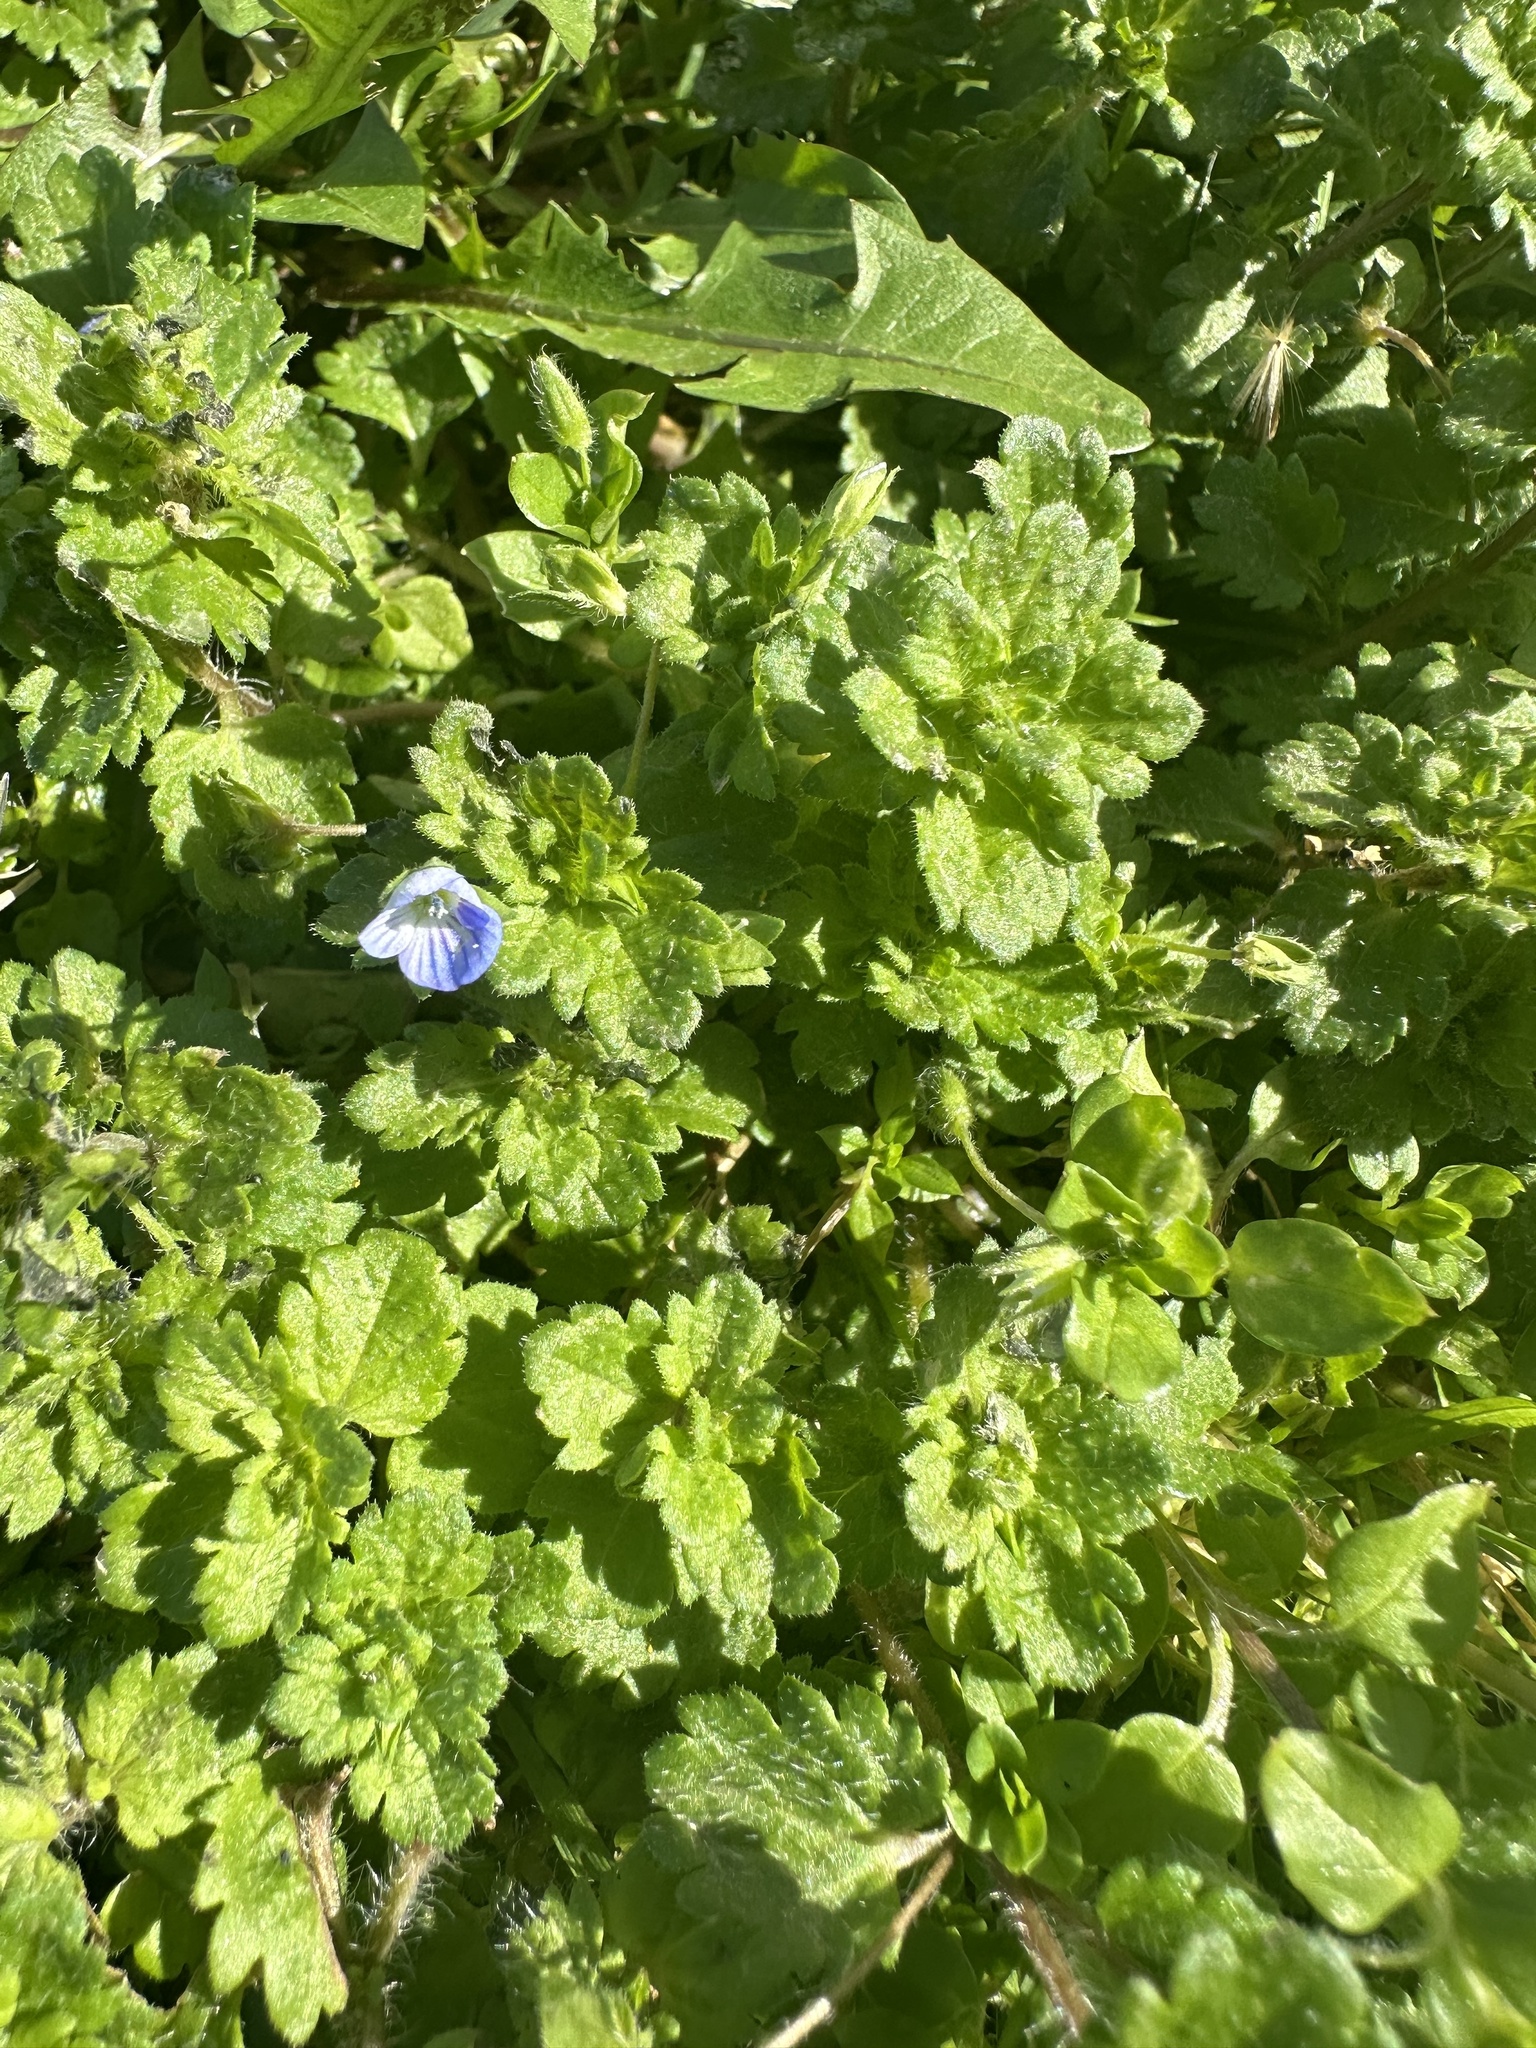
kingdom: Plantae
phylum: Tracheophyta
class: Magnoliopsida
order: Lamiales
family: Plantaginaceae
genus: Veronica
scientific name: Veronica persica
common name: Common field-speedwell
